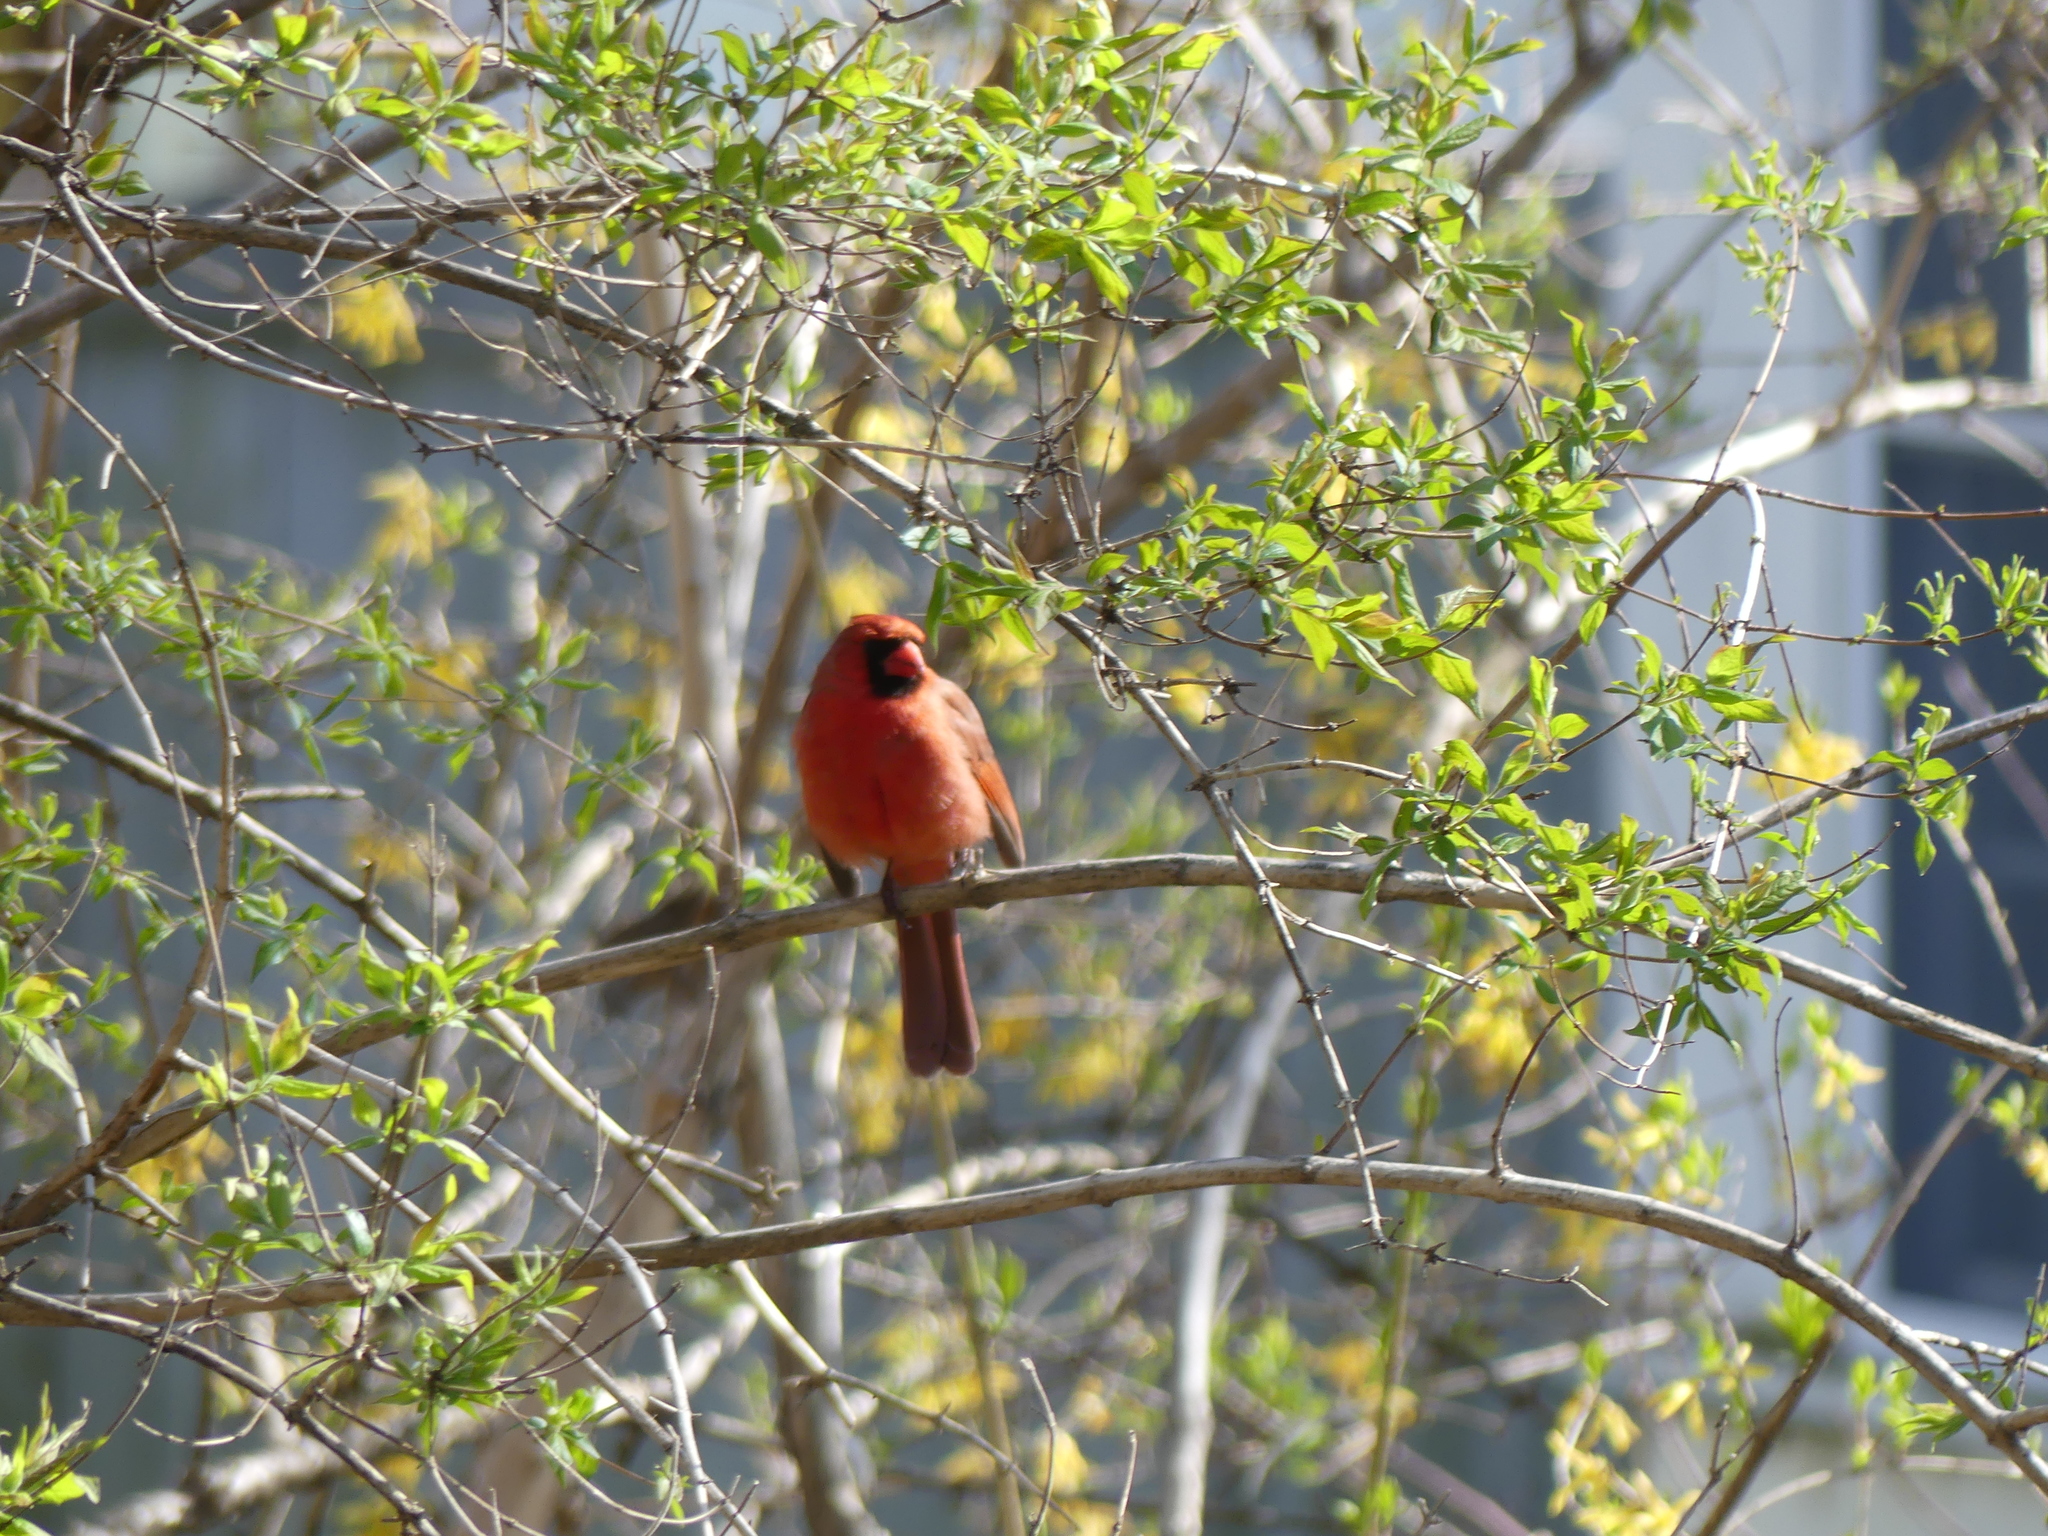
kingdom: Animalia
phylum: Chordata
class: Aves
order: Passeriformes
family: Cardinalidae
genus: Cardinalis
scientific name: Cardinalis cardinalis
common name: Northern cardinal
